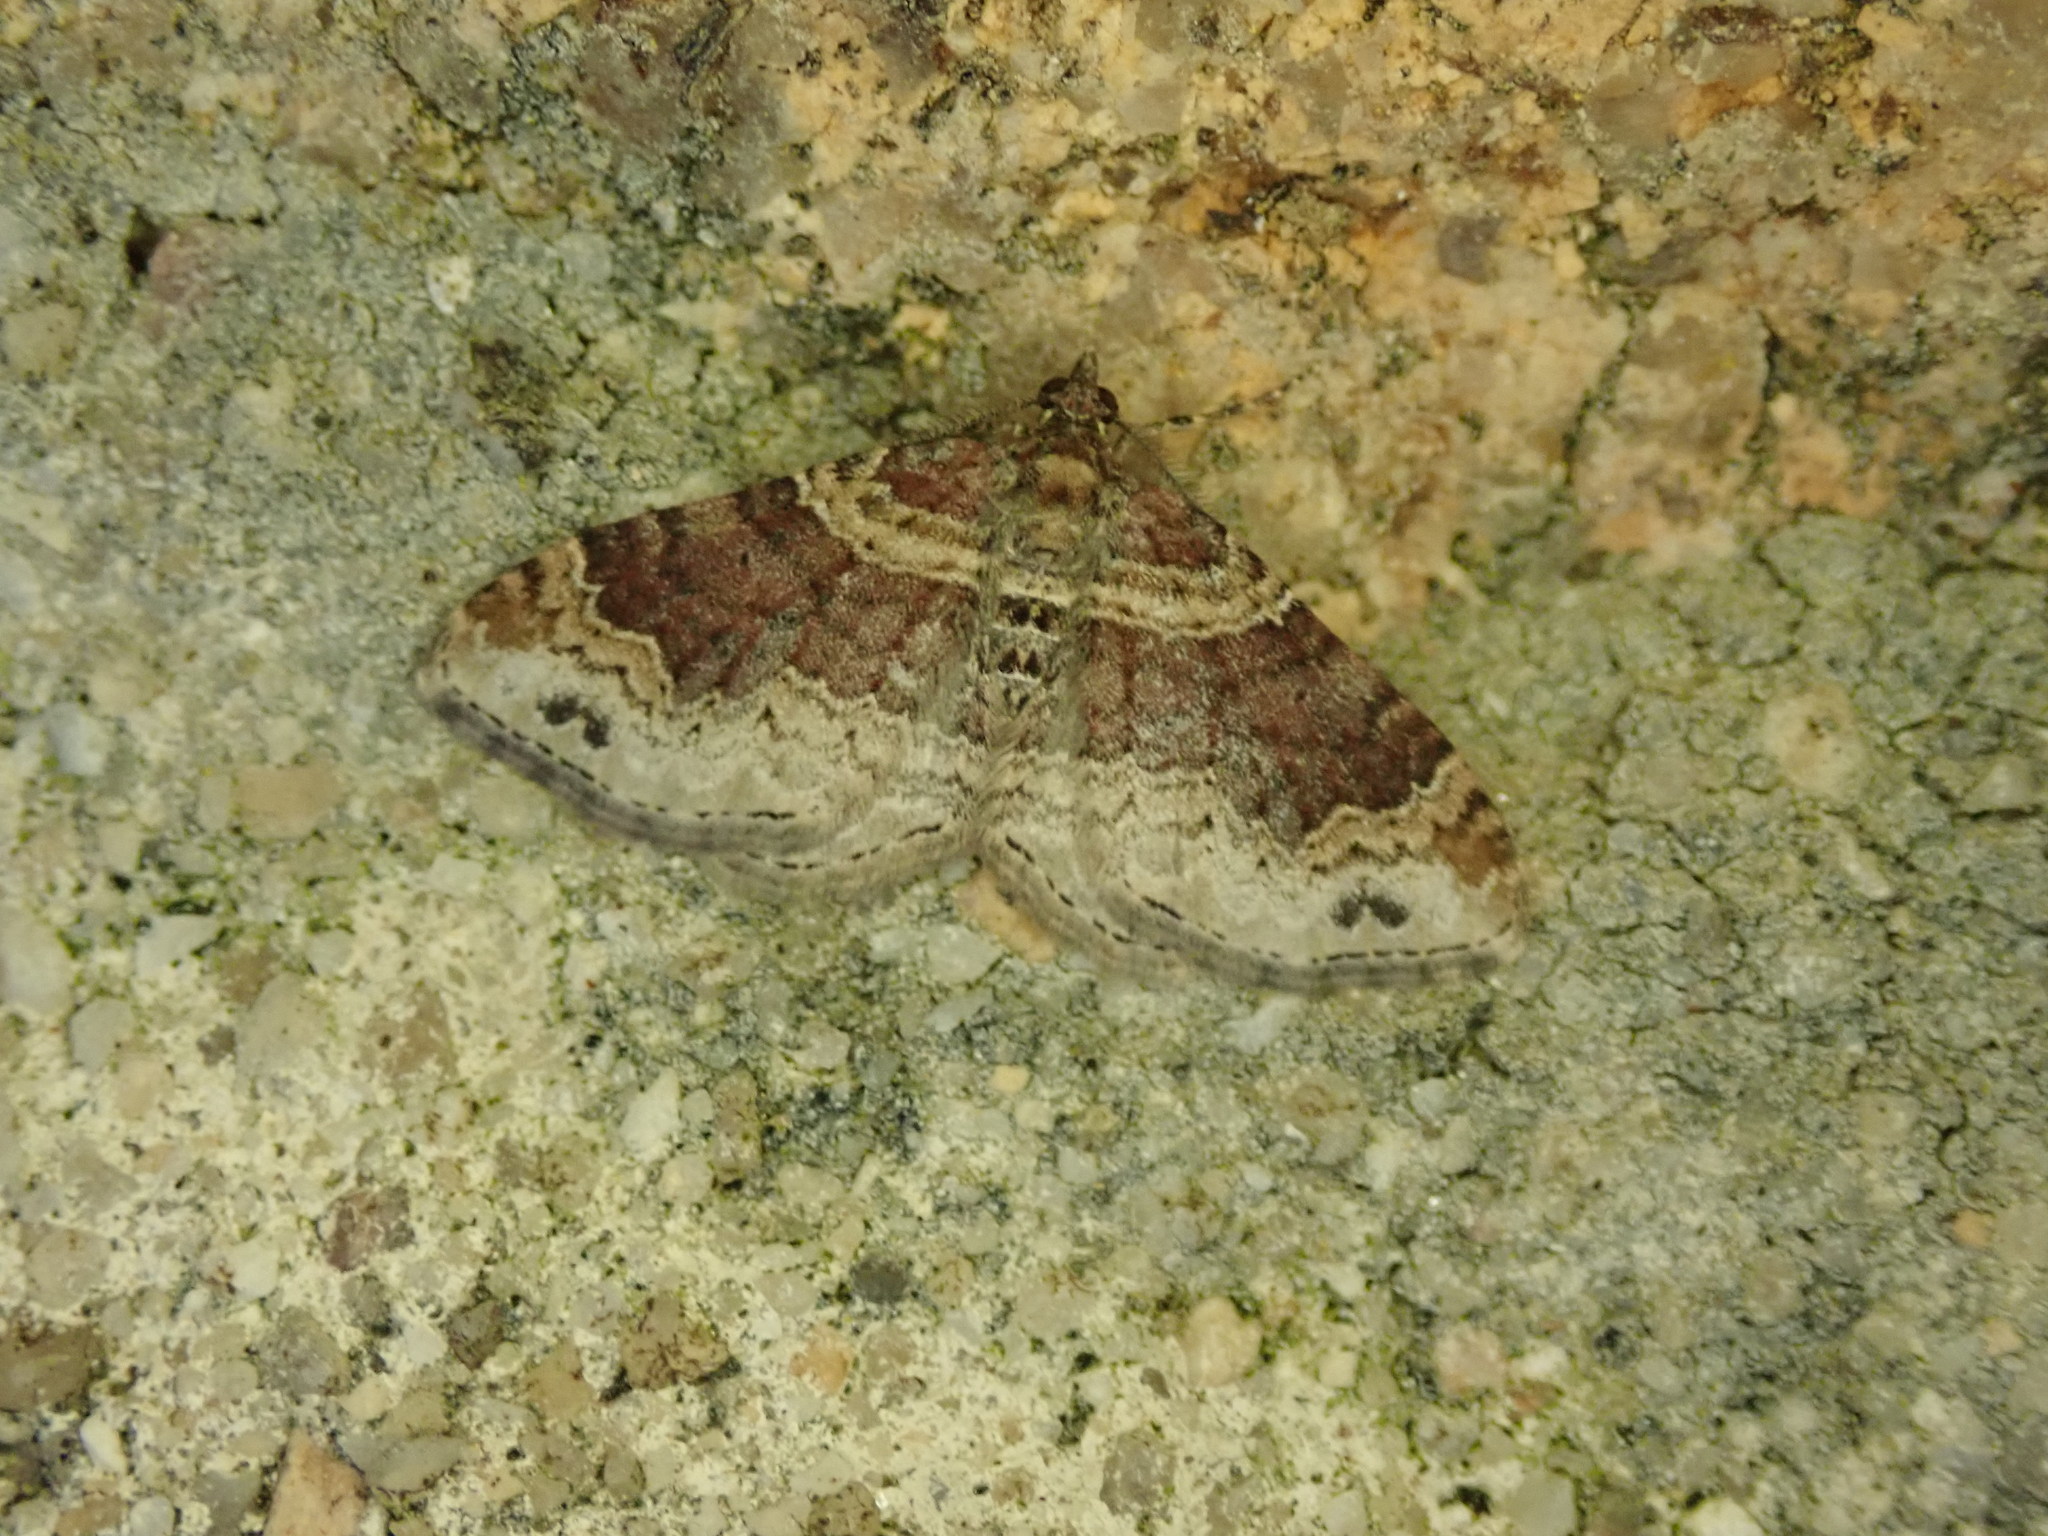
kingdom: Animalia
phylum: Arthropoda
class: Insecta
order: Lepidoptera
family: Geometridae
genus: Xanthorhoe
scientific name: Xanthorhoe spadicearia
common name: Red twin-spot carpet
